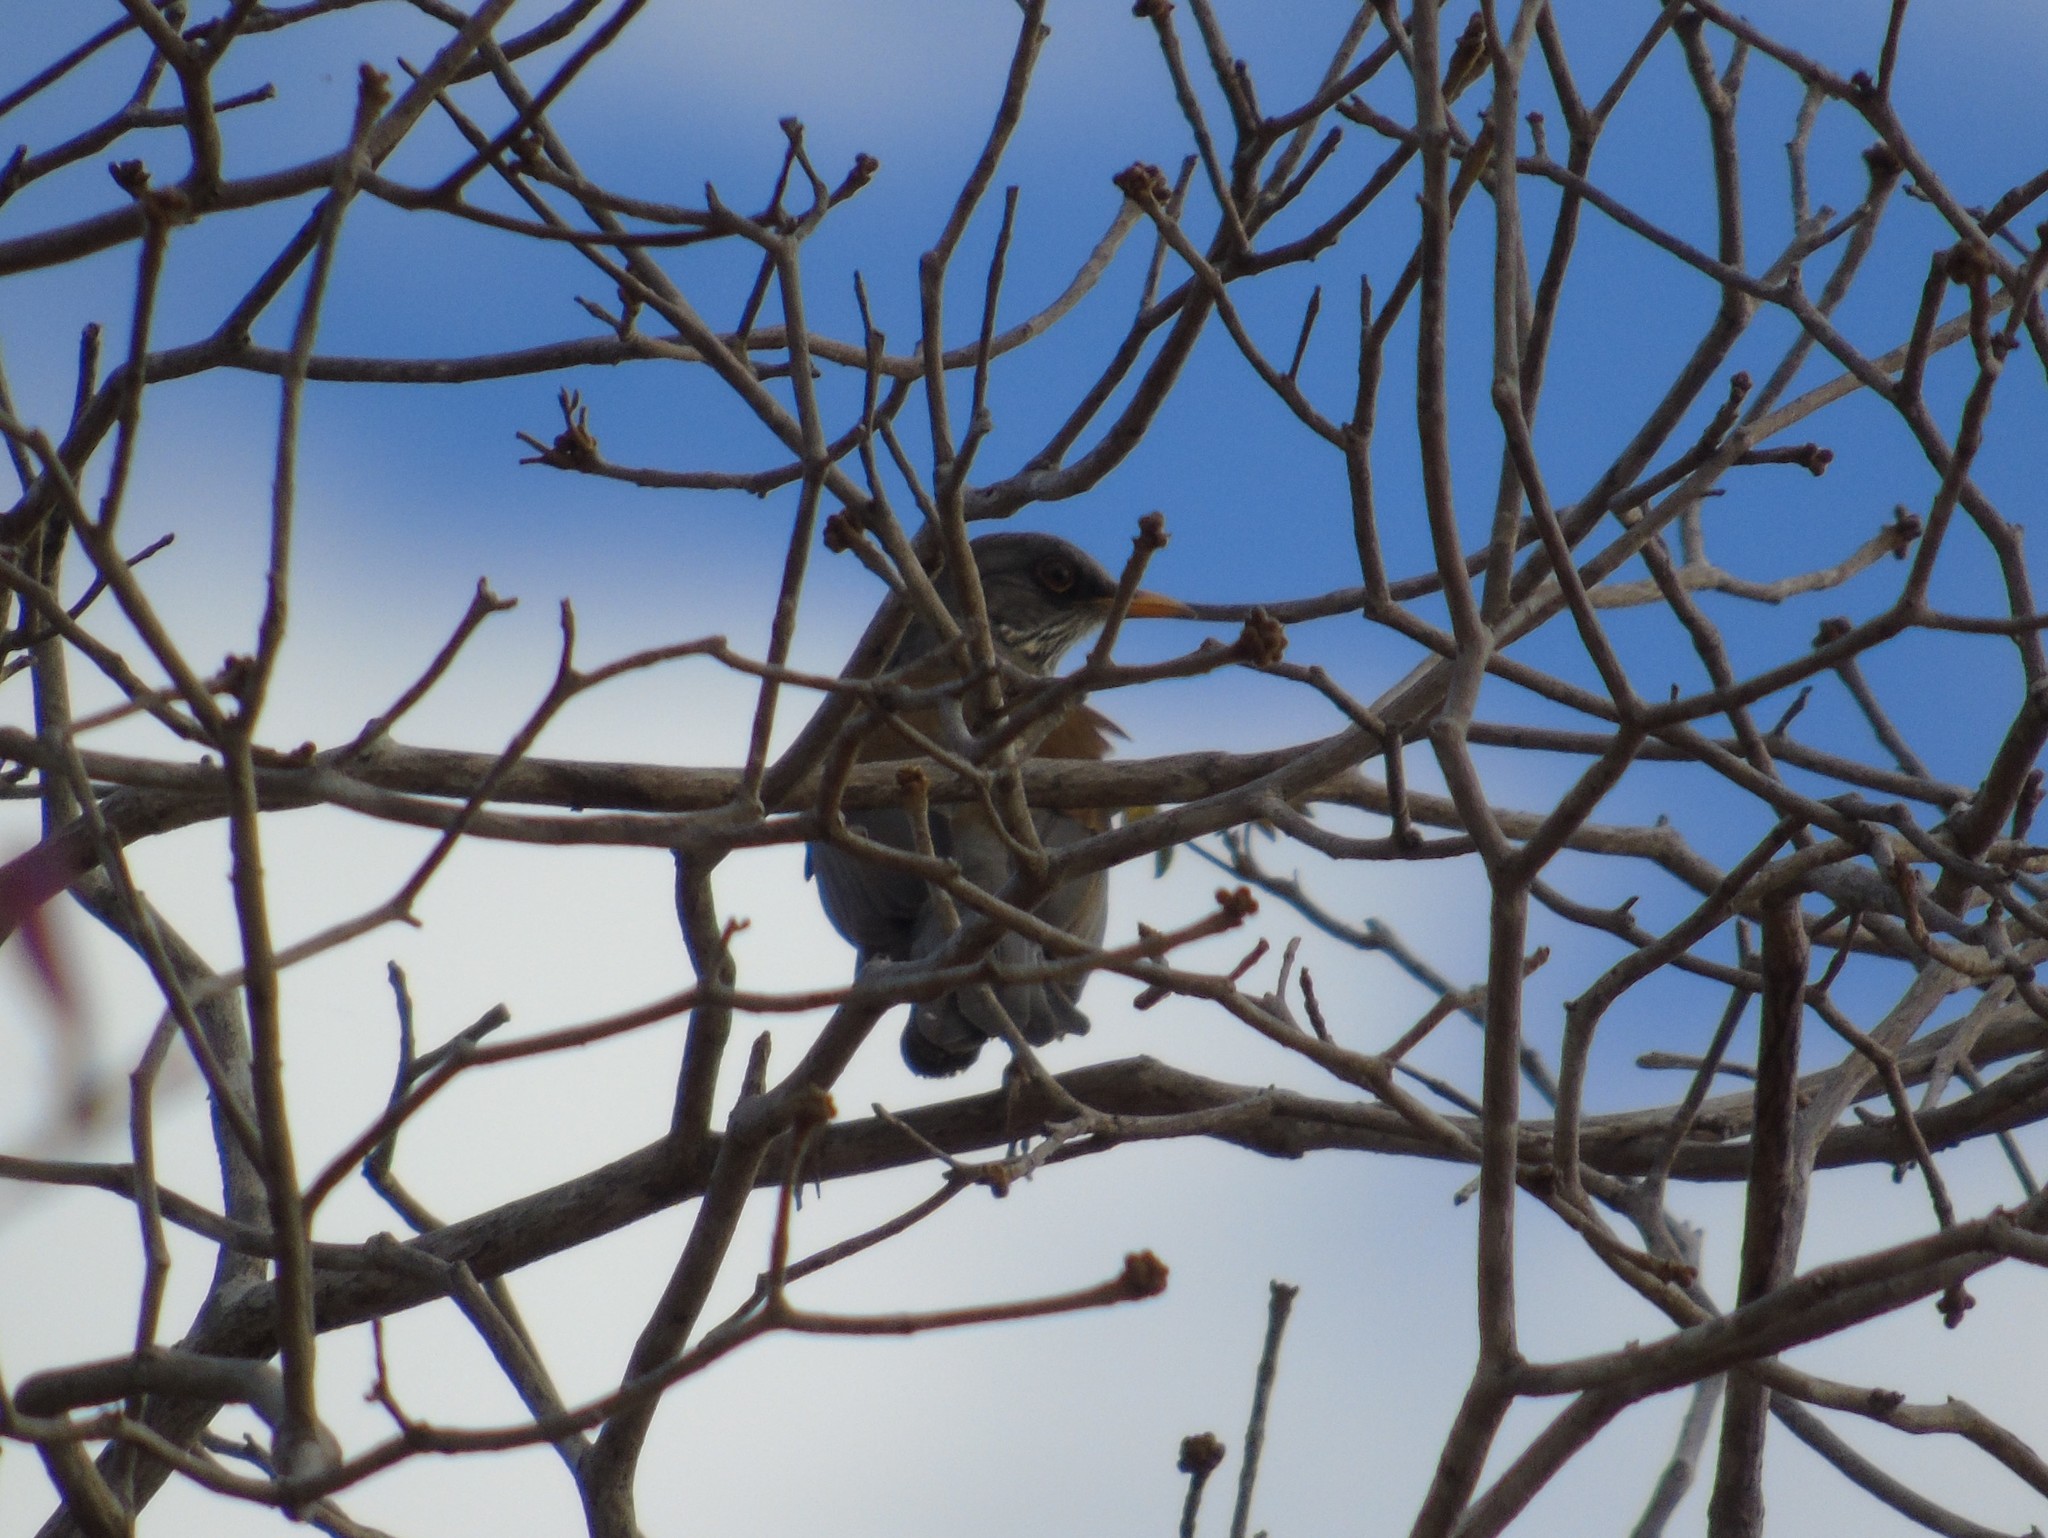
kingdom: Animalia
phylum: Chordata
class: Aves
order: Passeriformes
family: Turdidae
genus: Turdus
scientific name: Turdus rufopalliatus
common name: Rufous-backed robin
